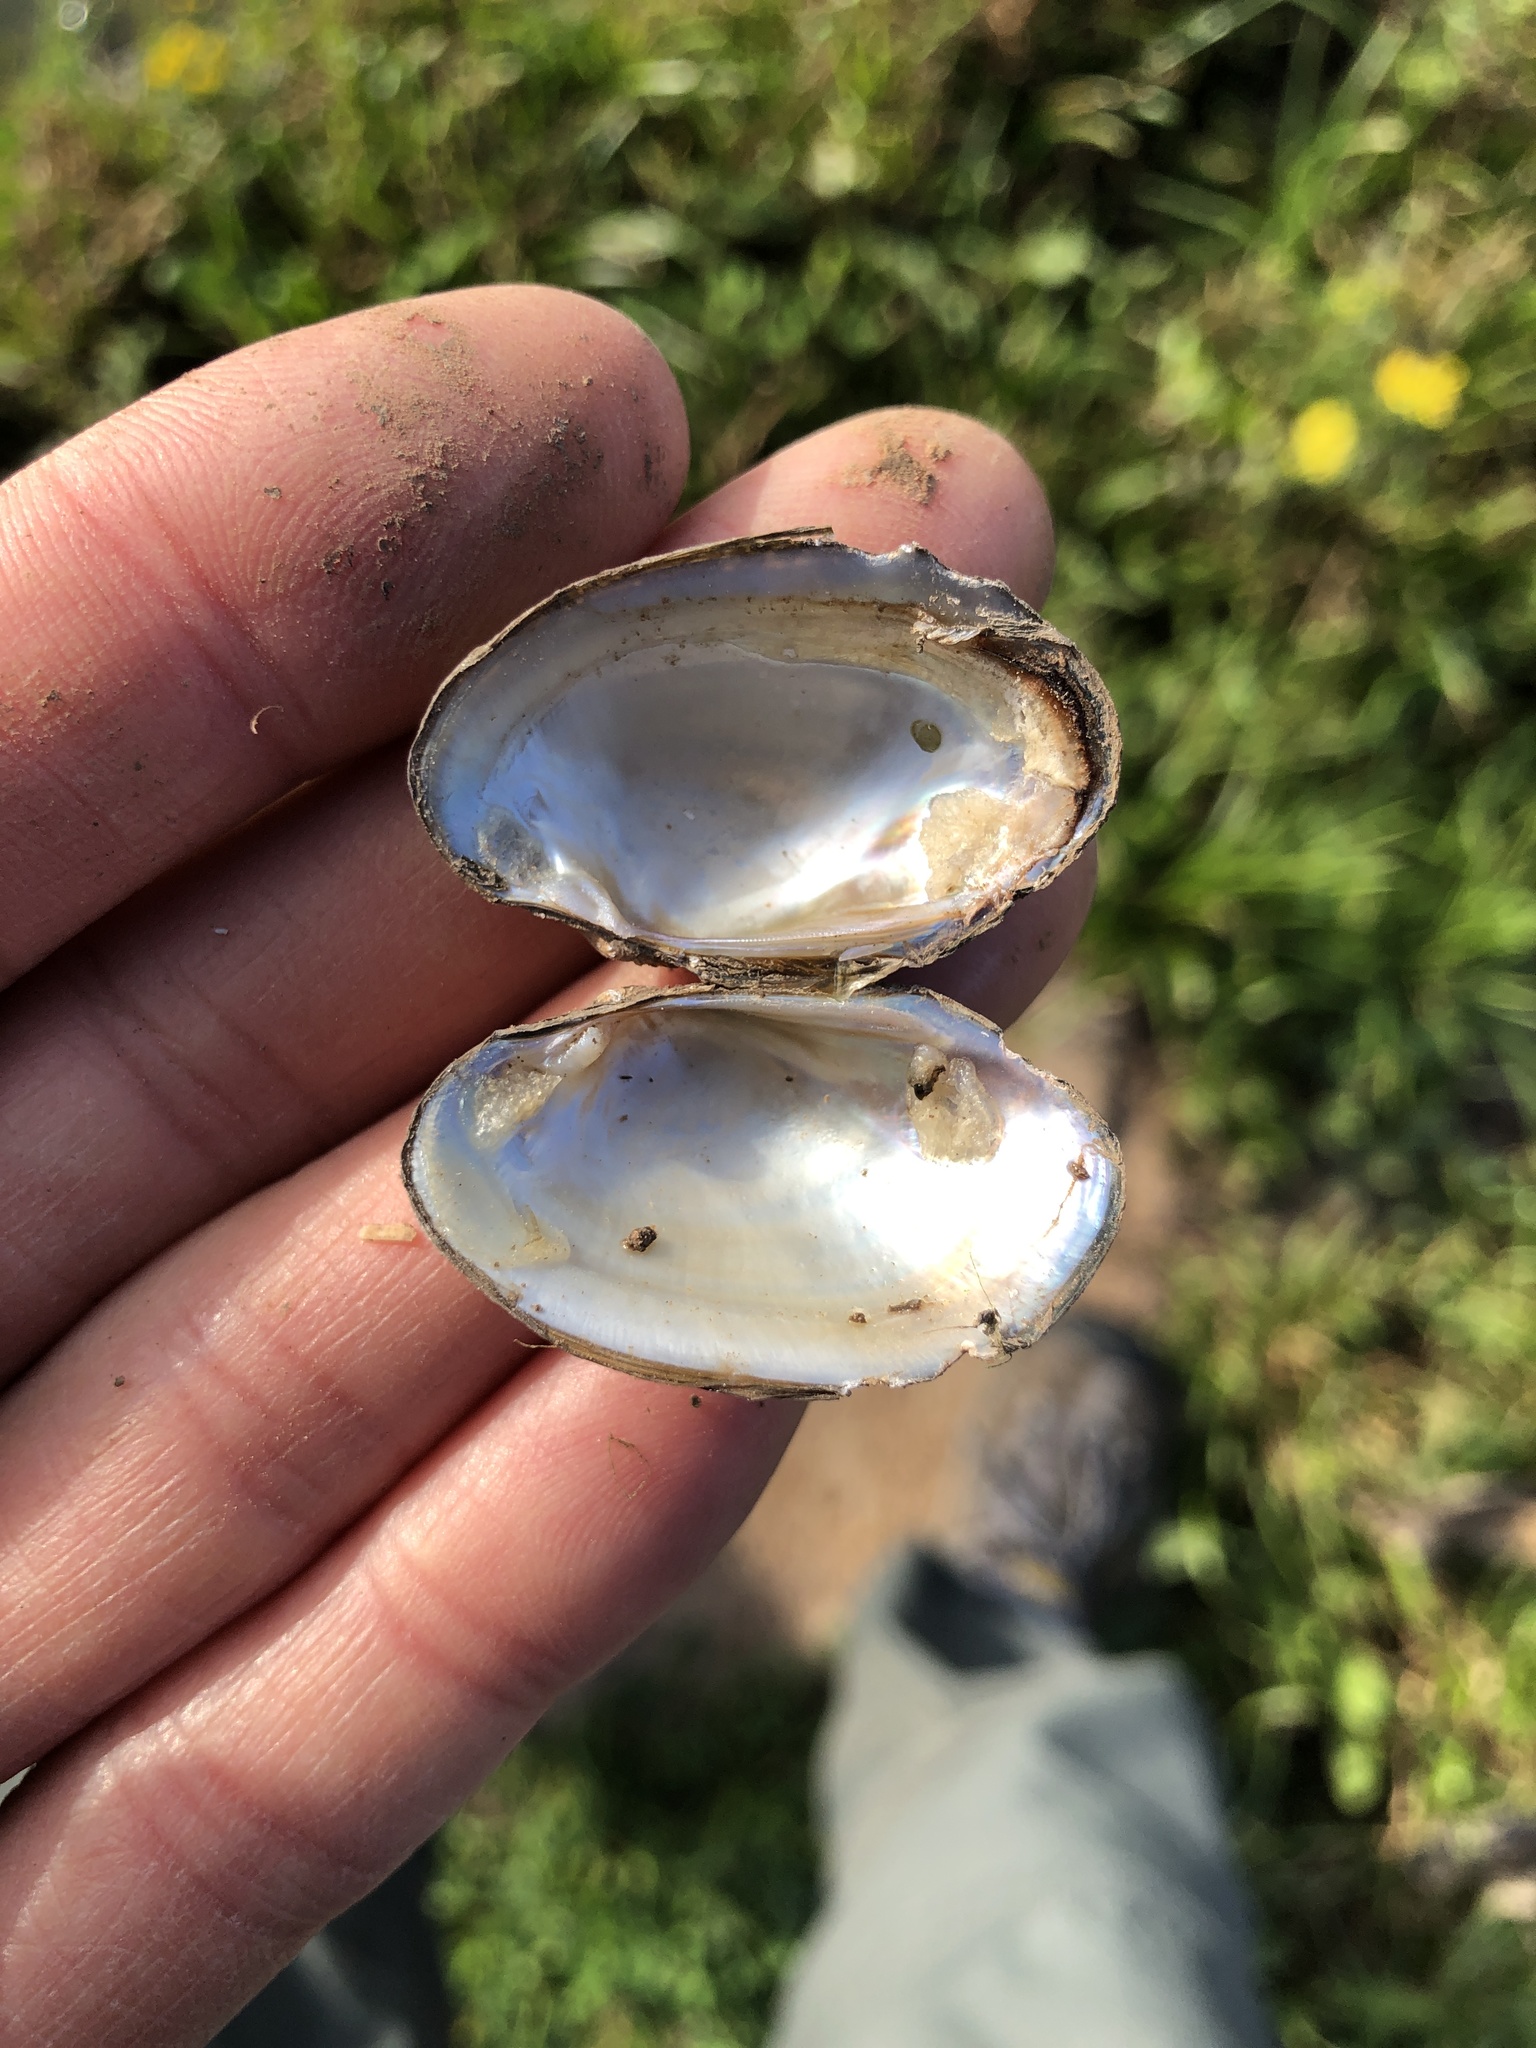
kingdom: Animalia
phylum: Mollusca
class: Bivalvia
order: Unionida
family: Unionidae
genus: Toxolasma
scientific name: Toxolasma parvum
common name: Lilliput
